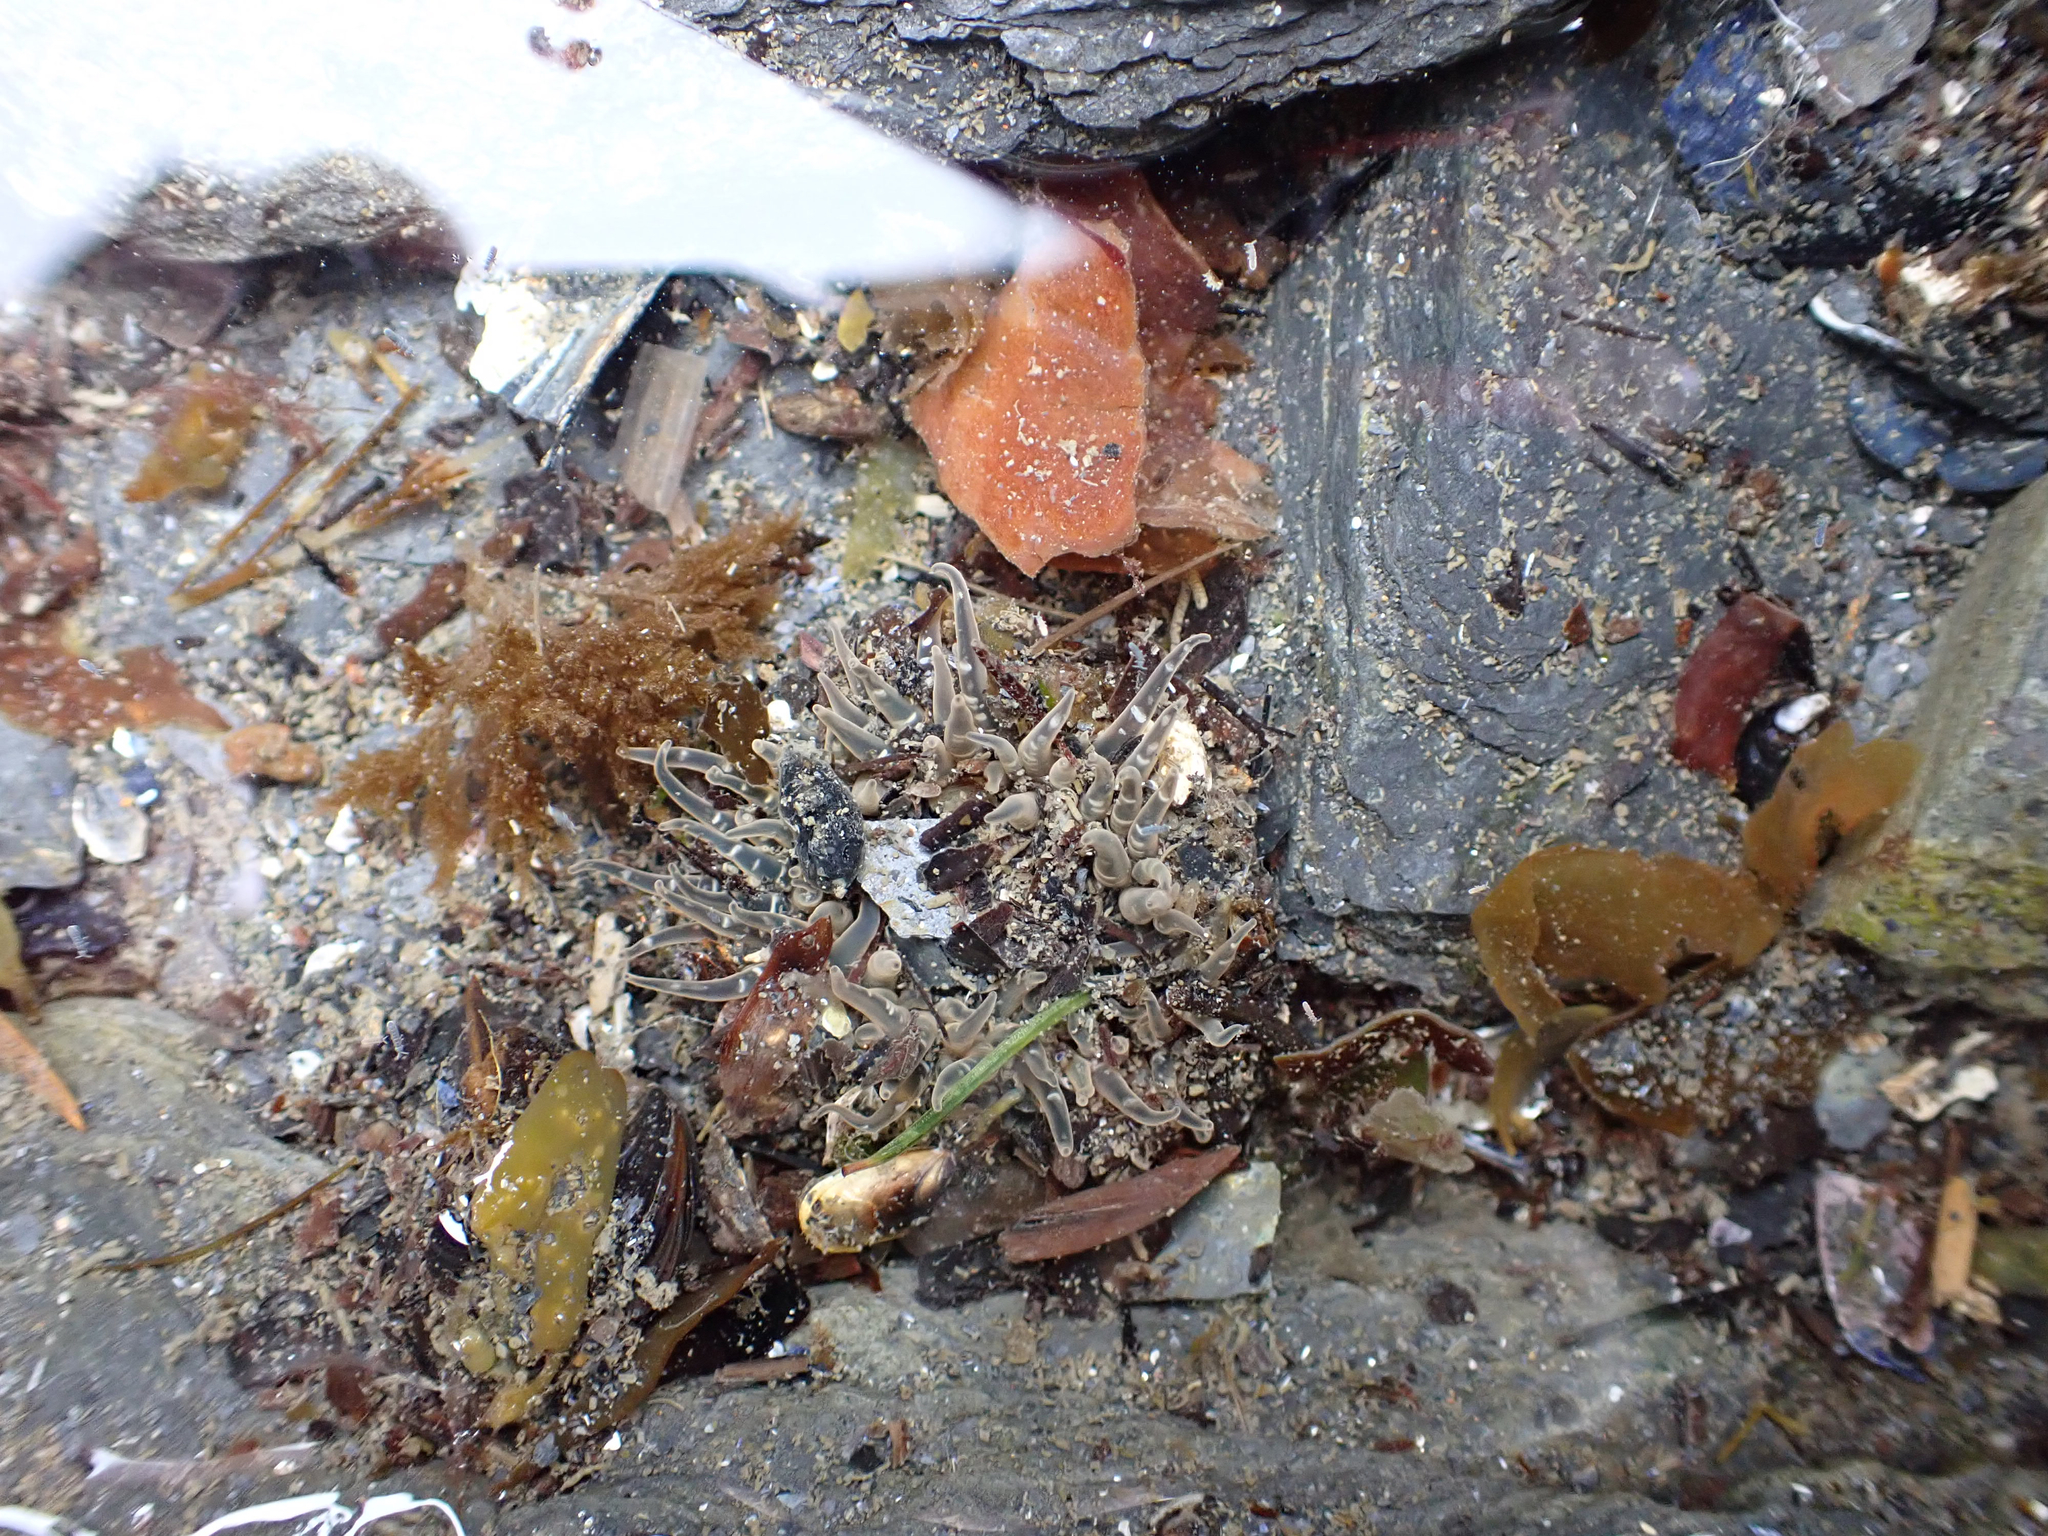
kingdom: Animalia
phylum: Cnidaria
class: Anthozoa
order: Actiniaria
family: Actiniidae
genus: Anthopleura
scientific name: Anthopleura artemisia
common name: Buried sea anemone
